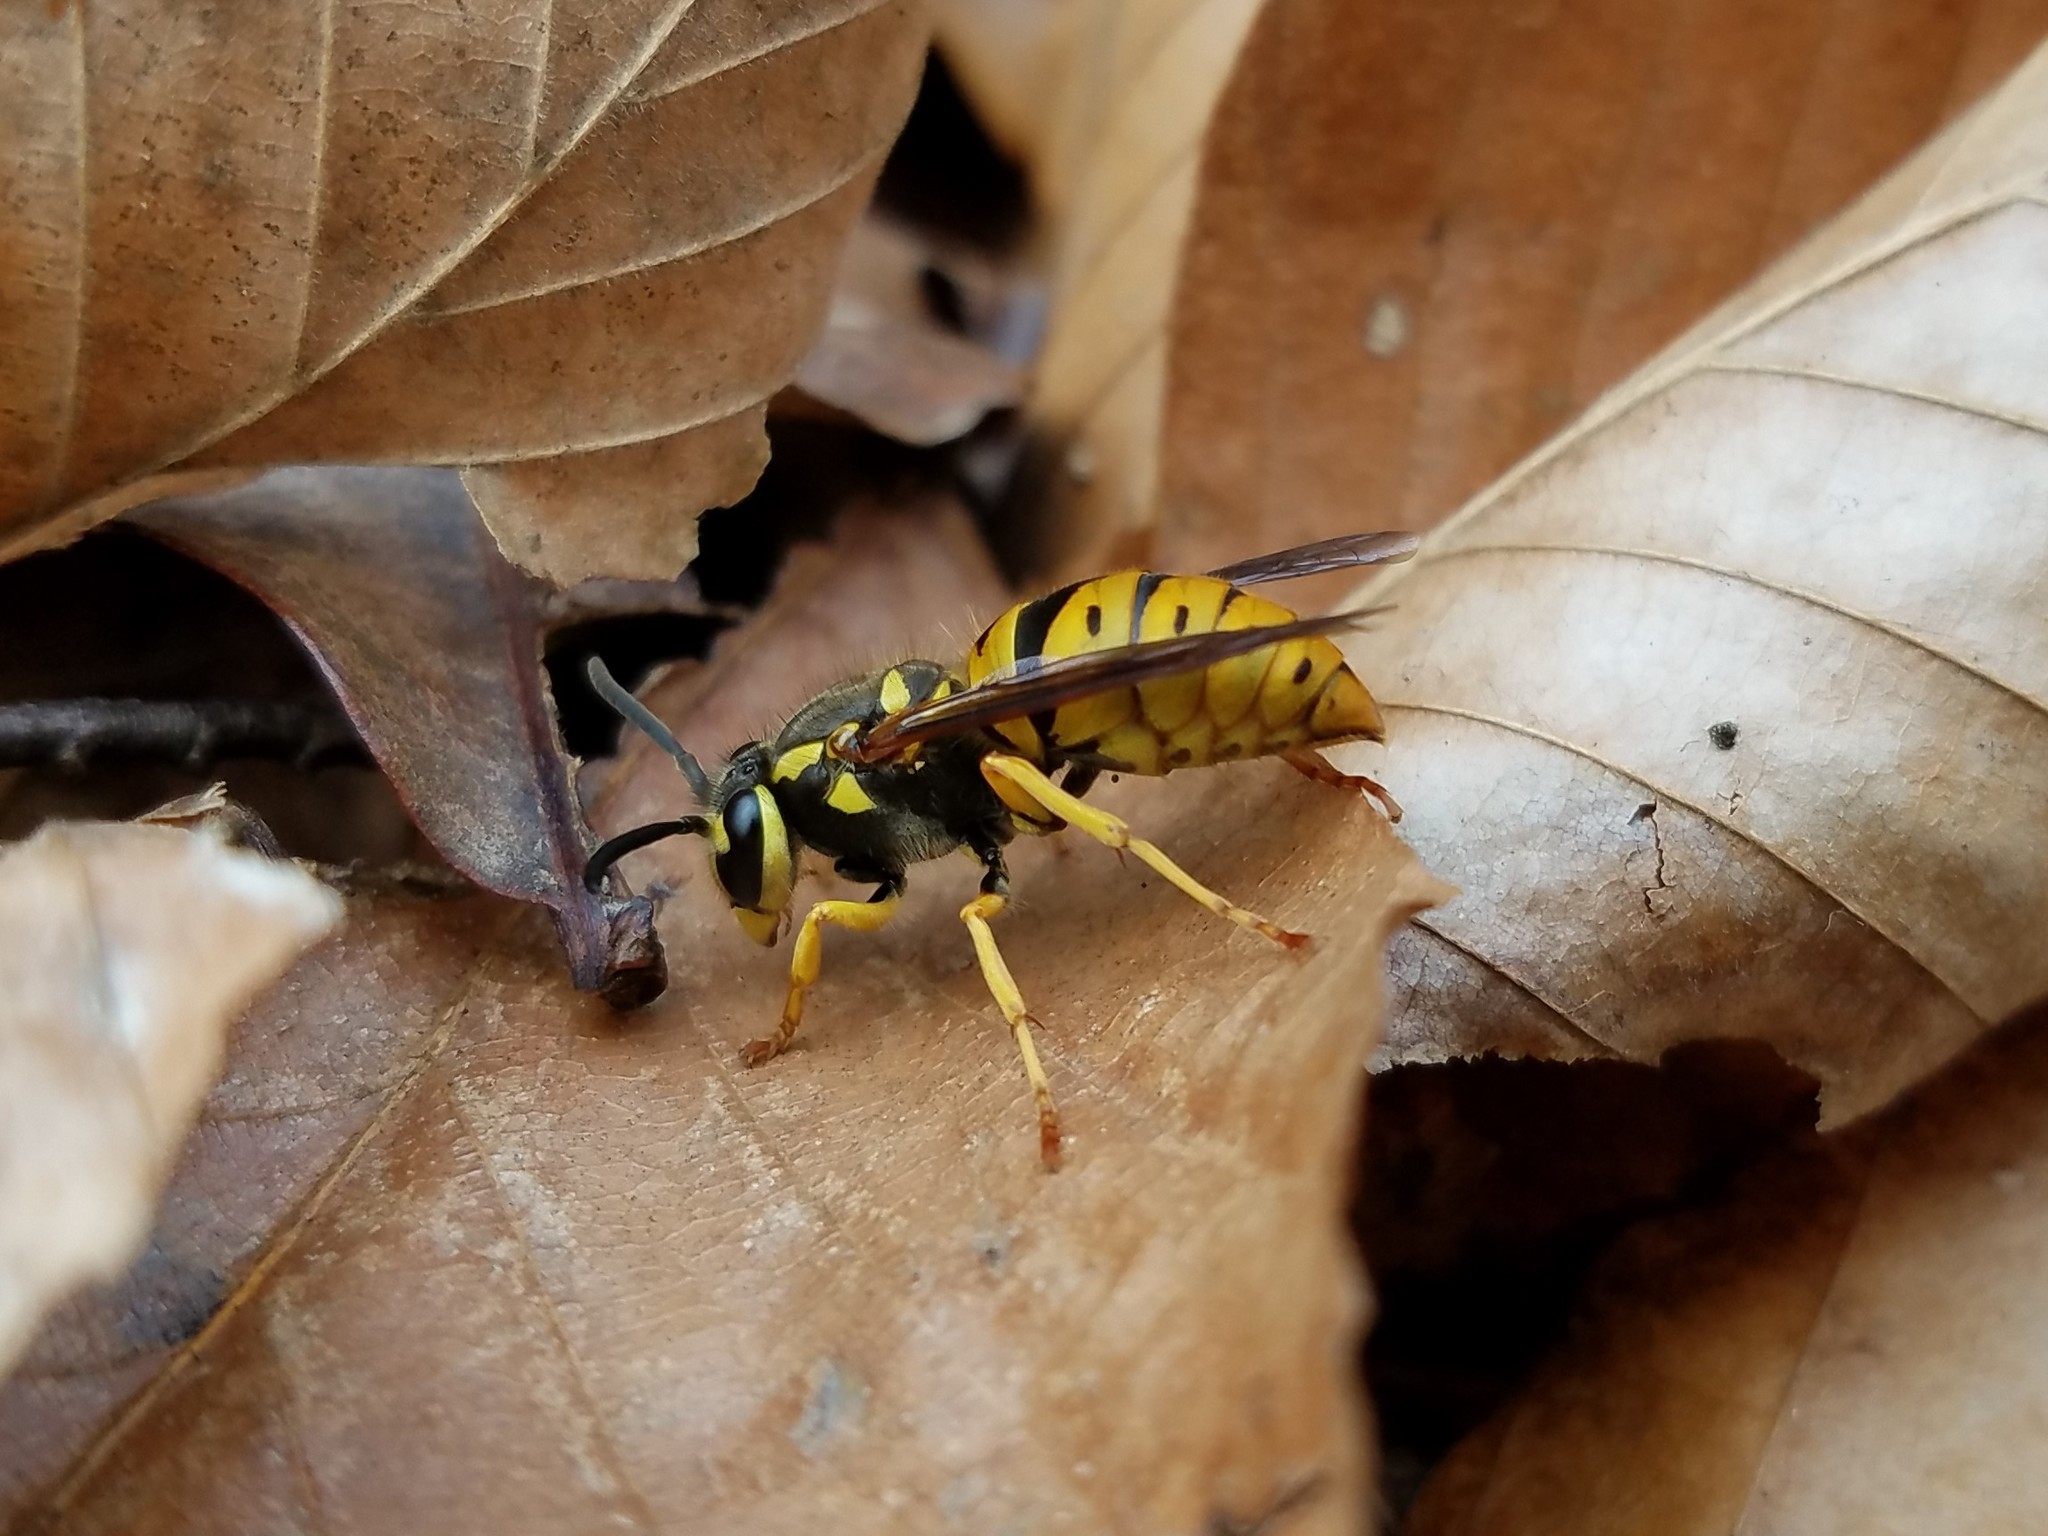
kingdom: Animalia
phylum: Arthropoda
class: Insecta
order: Hymenoptera
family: Vespidae
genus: Vespula
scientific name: Vespula maculifrons
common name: Eastern yellowjacket
